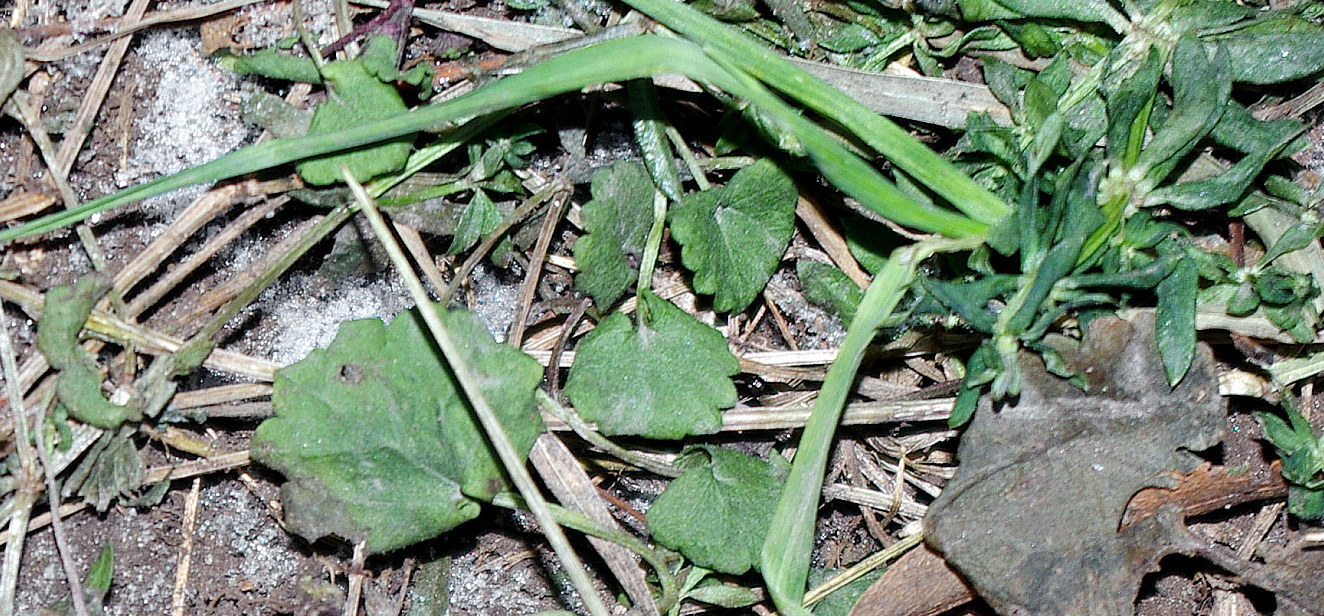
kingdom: Plantae
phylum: Tracheophyta
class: Magnoliopsida
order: Lamiales
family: Lamiaceae
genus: Glechoma
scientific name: Glechoma hederacea
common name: Ground ivy
